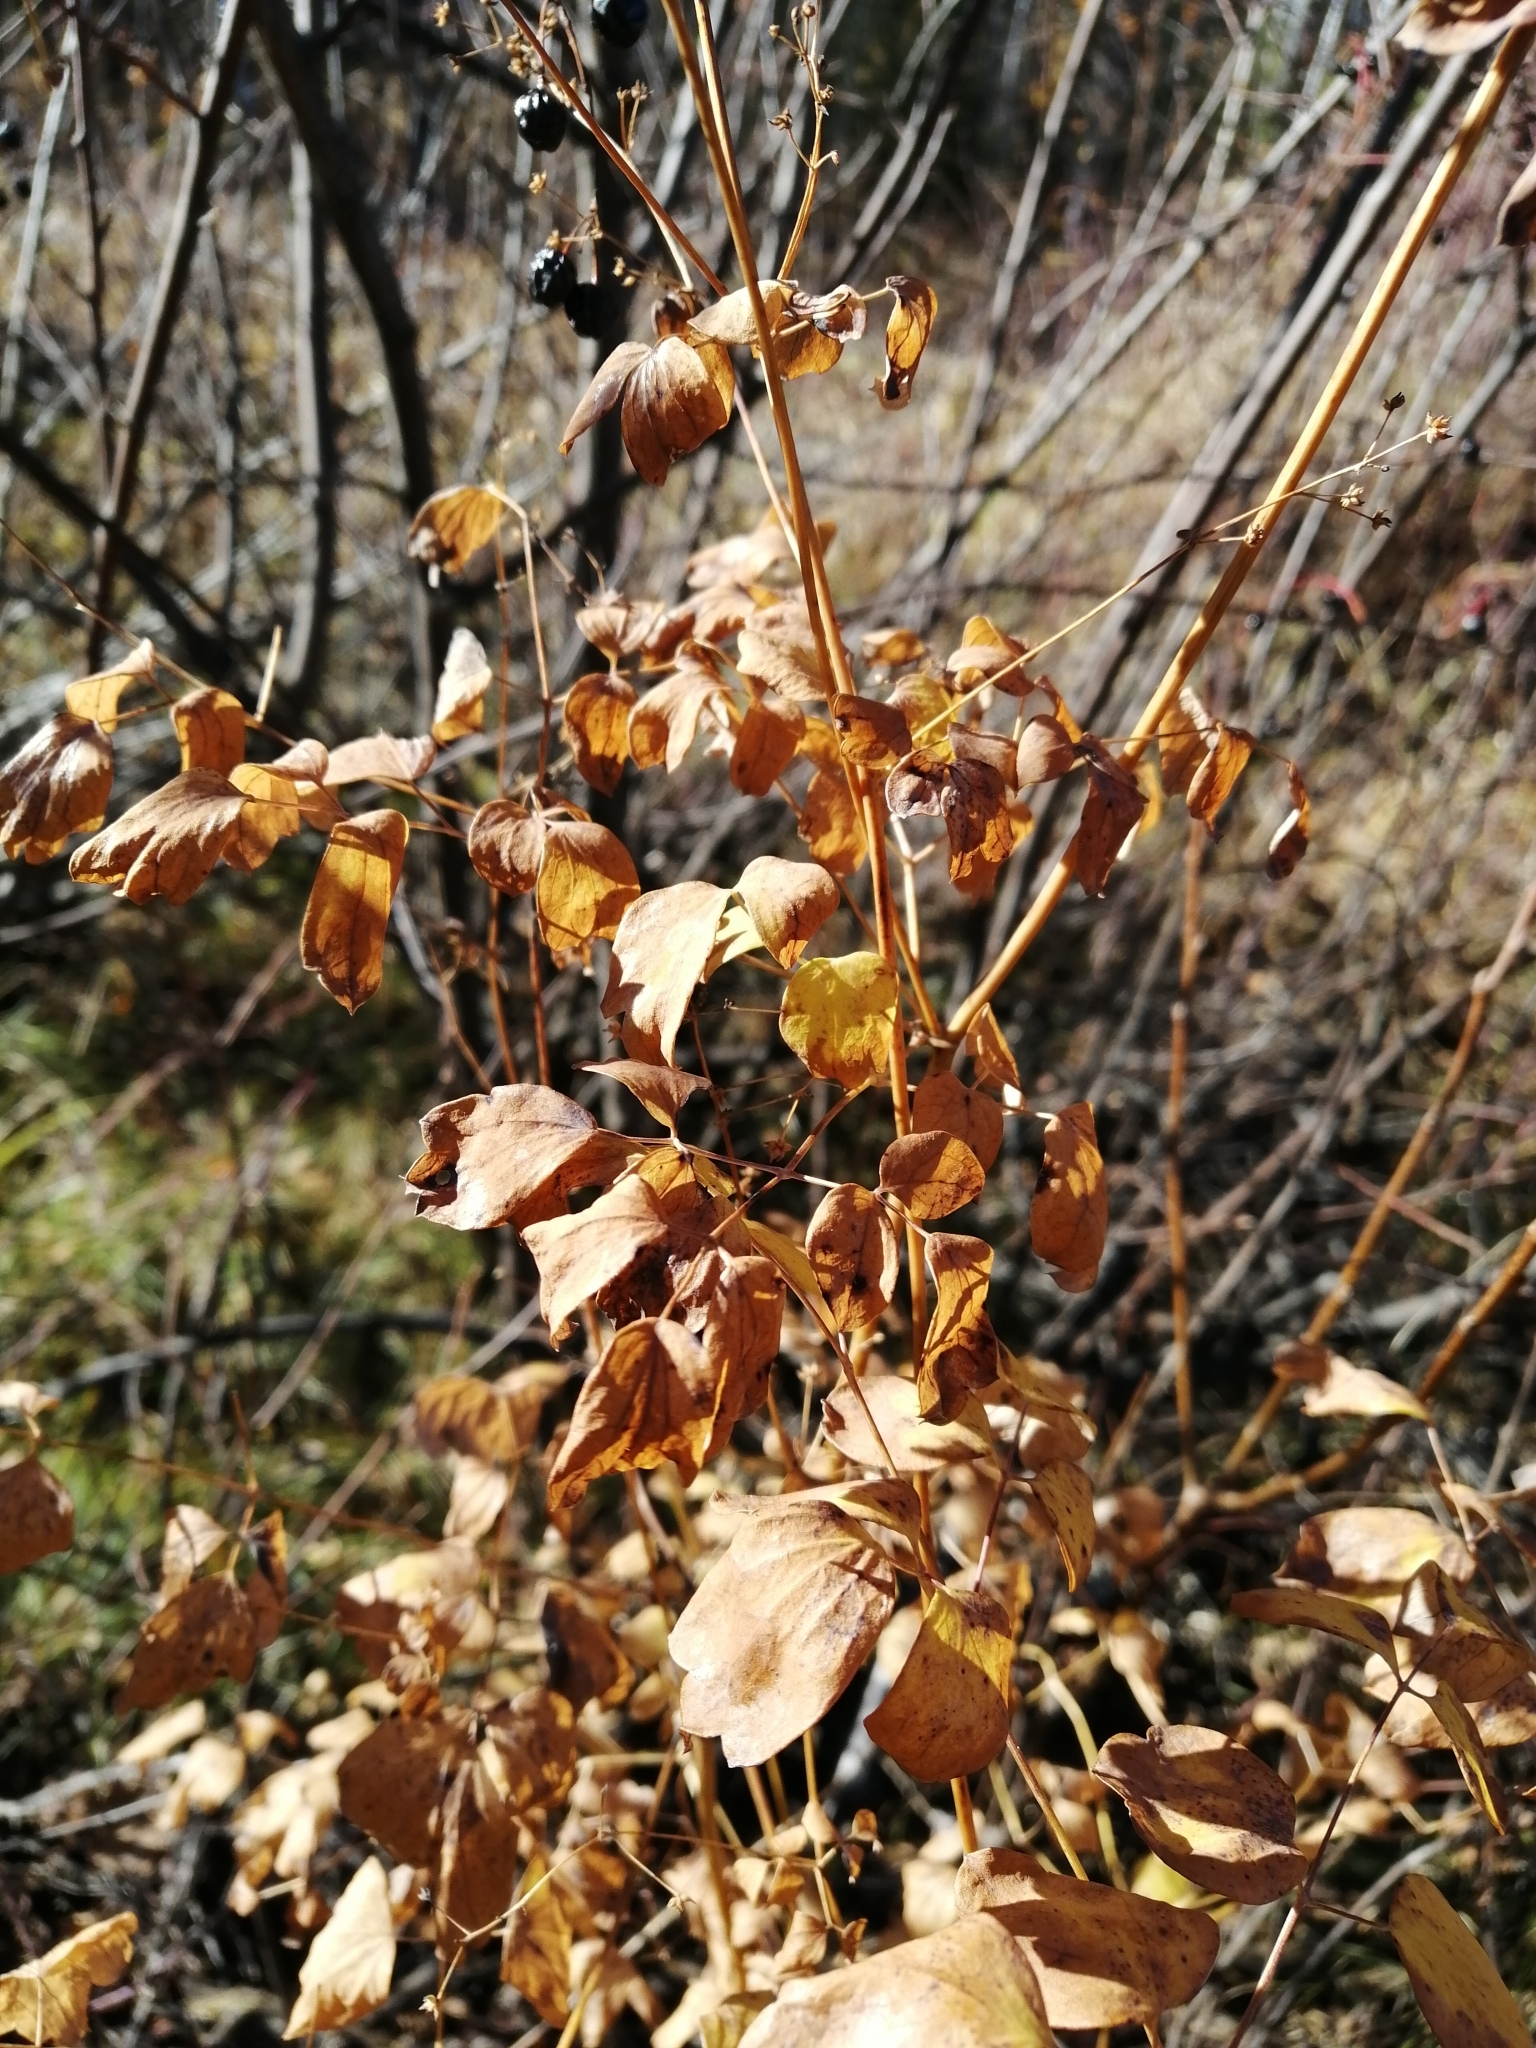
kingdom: Plantae
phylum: Tracheophyta
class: Magnoliopsida
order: Ranunculales
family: Ranunculaceae
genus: Thalictrum
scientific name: Thalictrum minus
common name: Lesser meadow-rue
